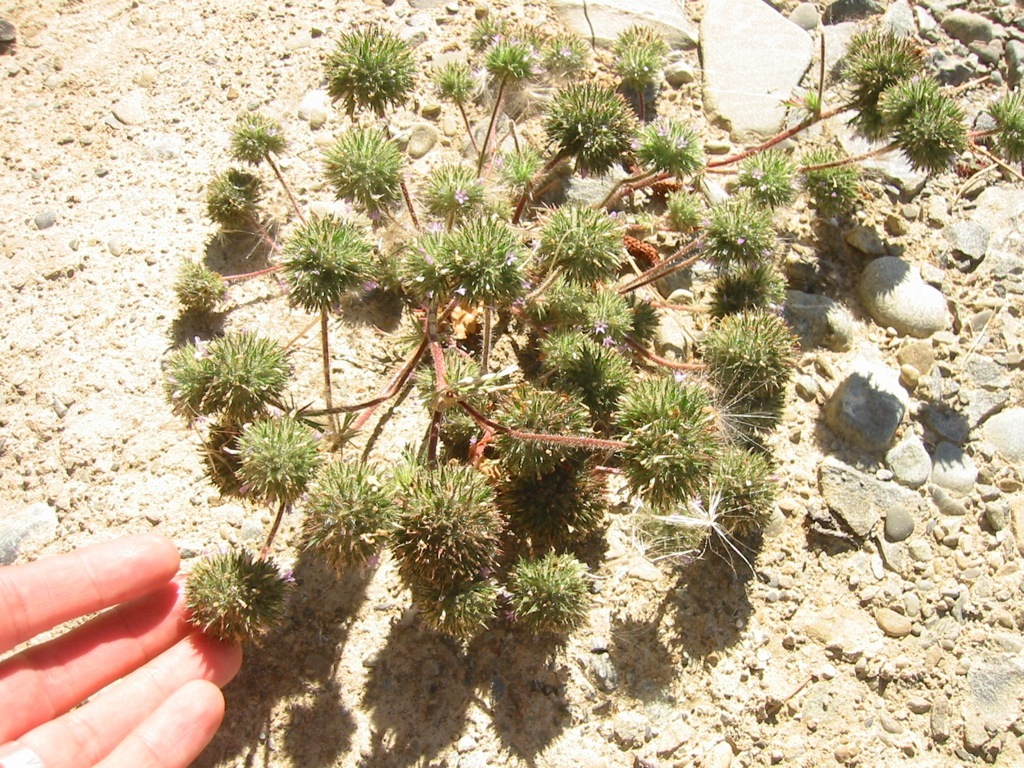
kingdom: Plantae
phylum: Tracheophyta
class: Magnoliopsida
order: Ericales
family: Polemoniaceae
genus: Navarretia
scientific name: Navarretia squarrosa
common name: Skunkweed
